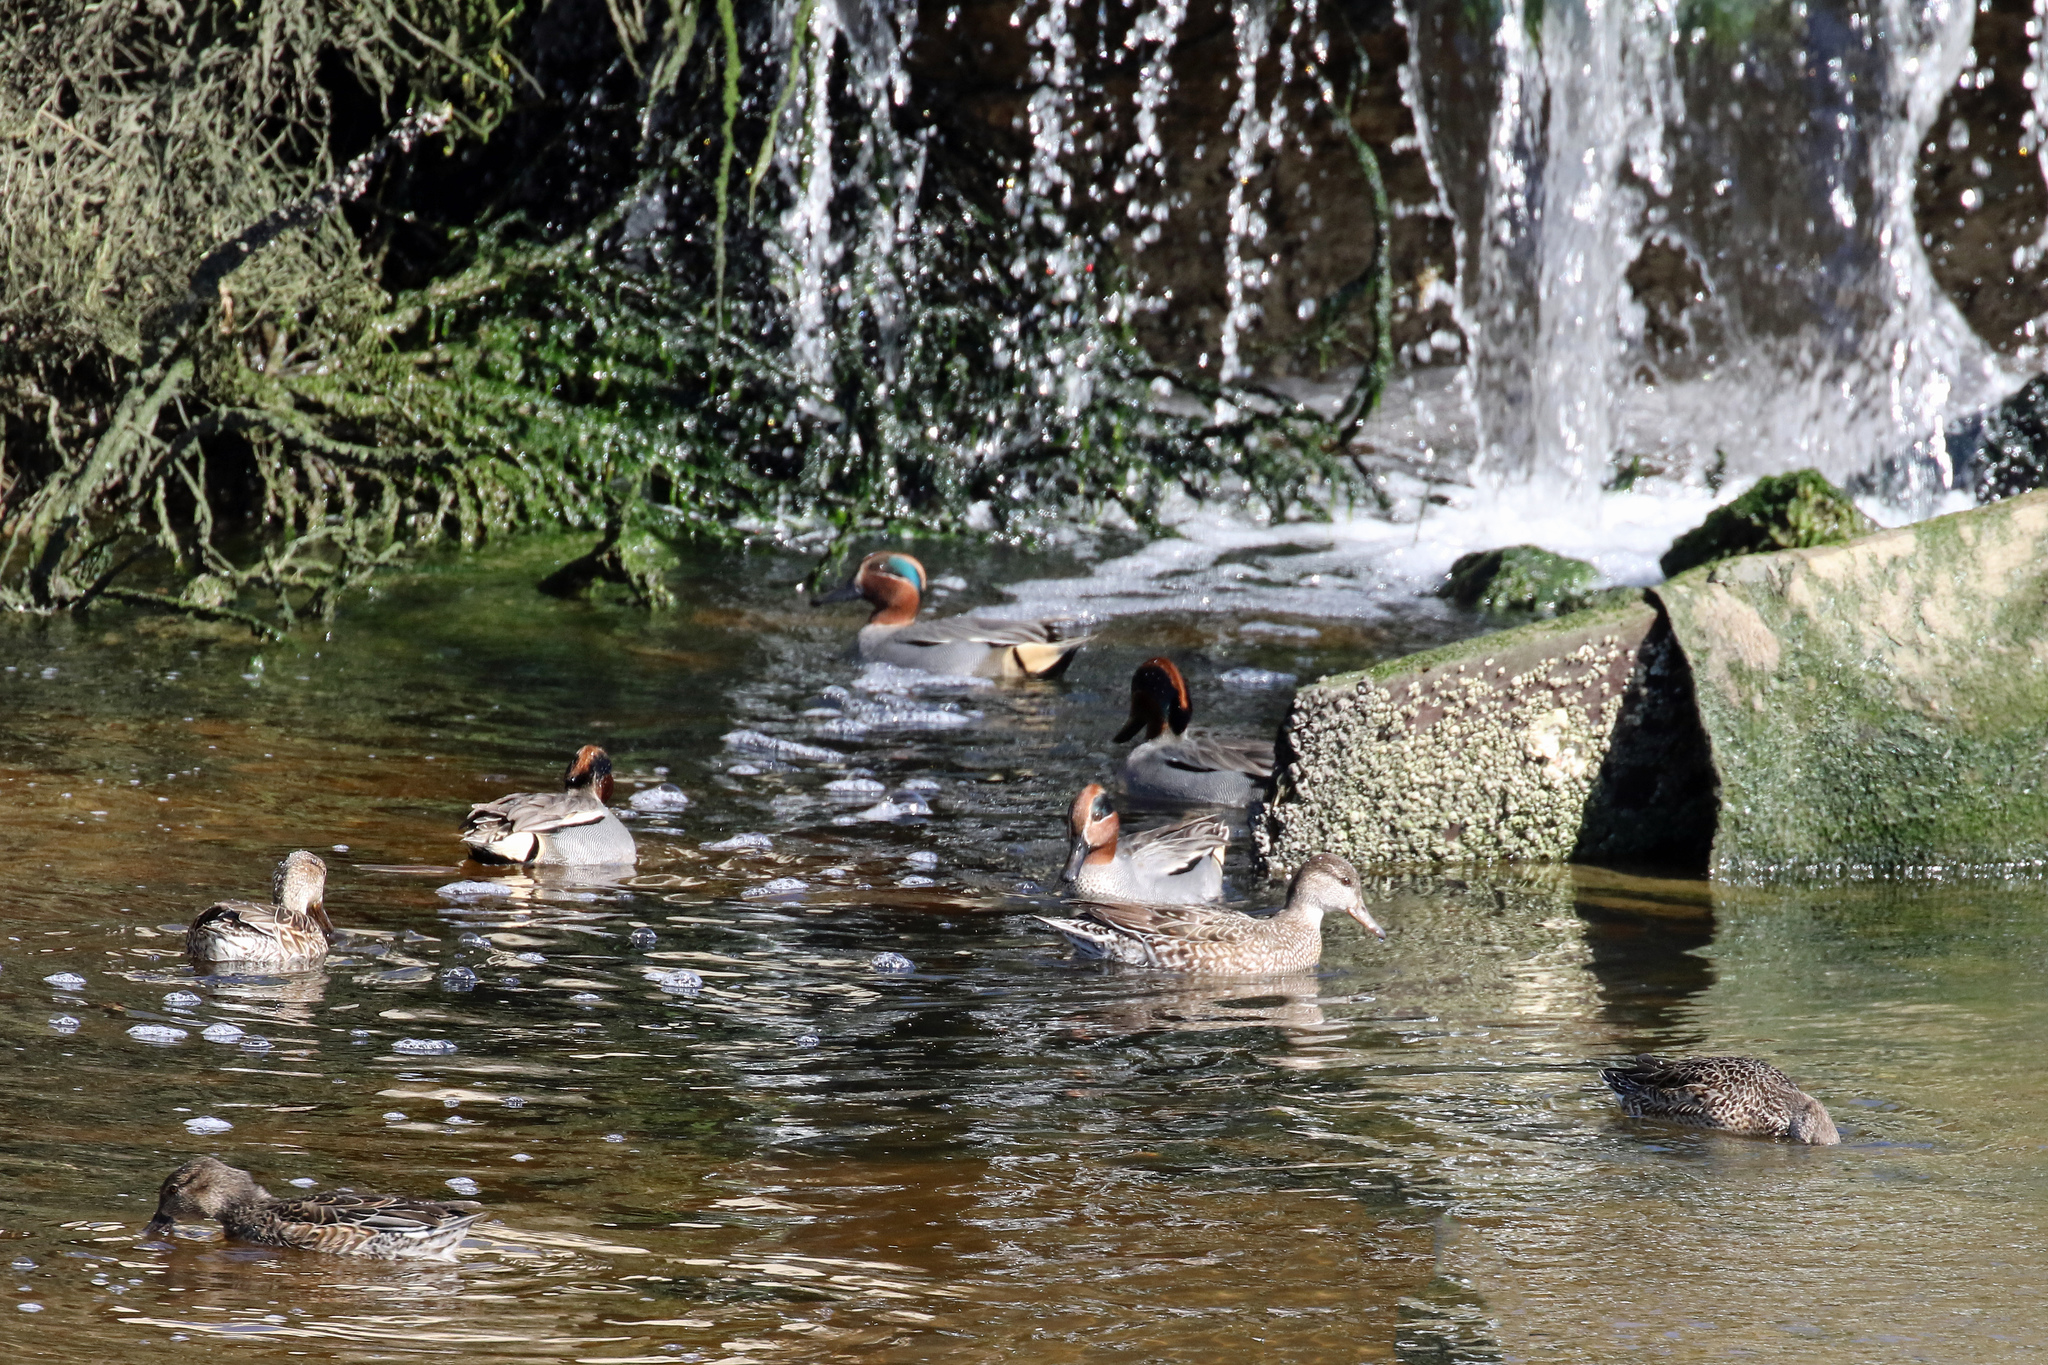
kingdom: Animalia
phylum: Chordata
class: Aves
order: Anseriformes
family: Anatidae
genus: Anas
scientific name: Anas crecca
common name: Eurasian teal
